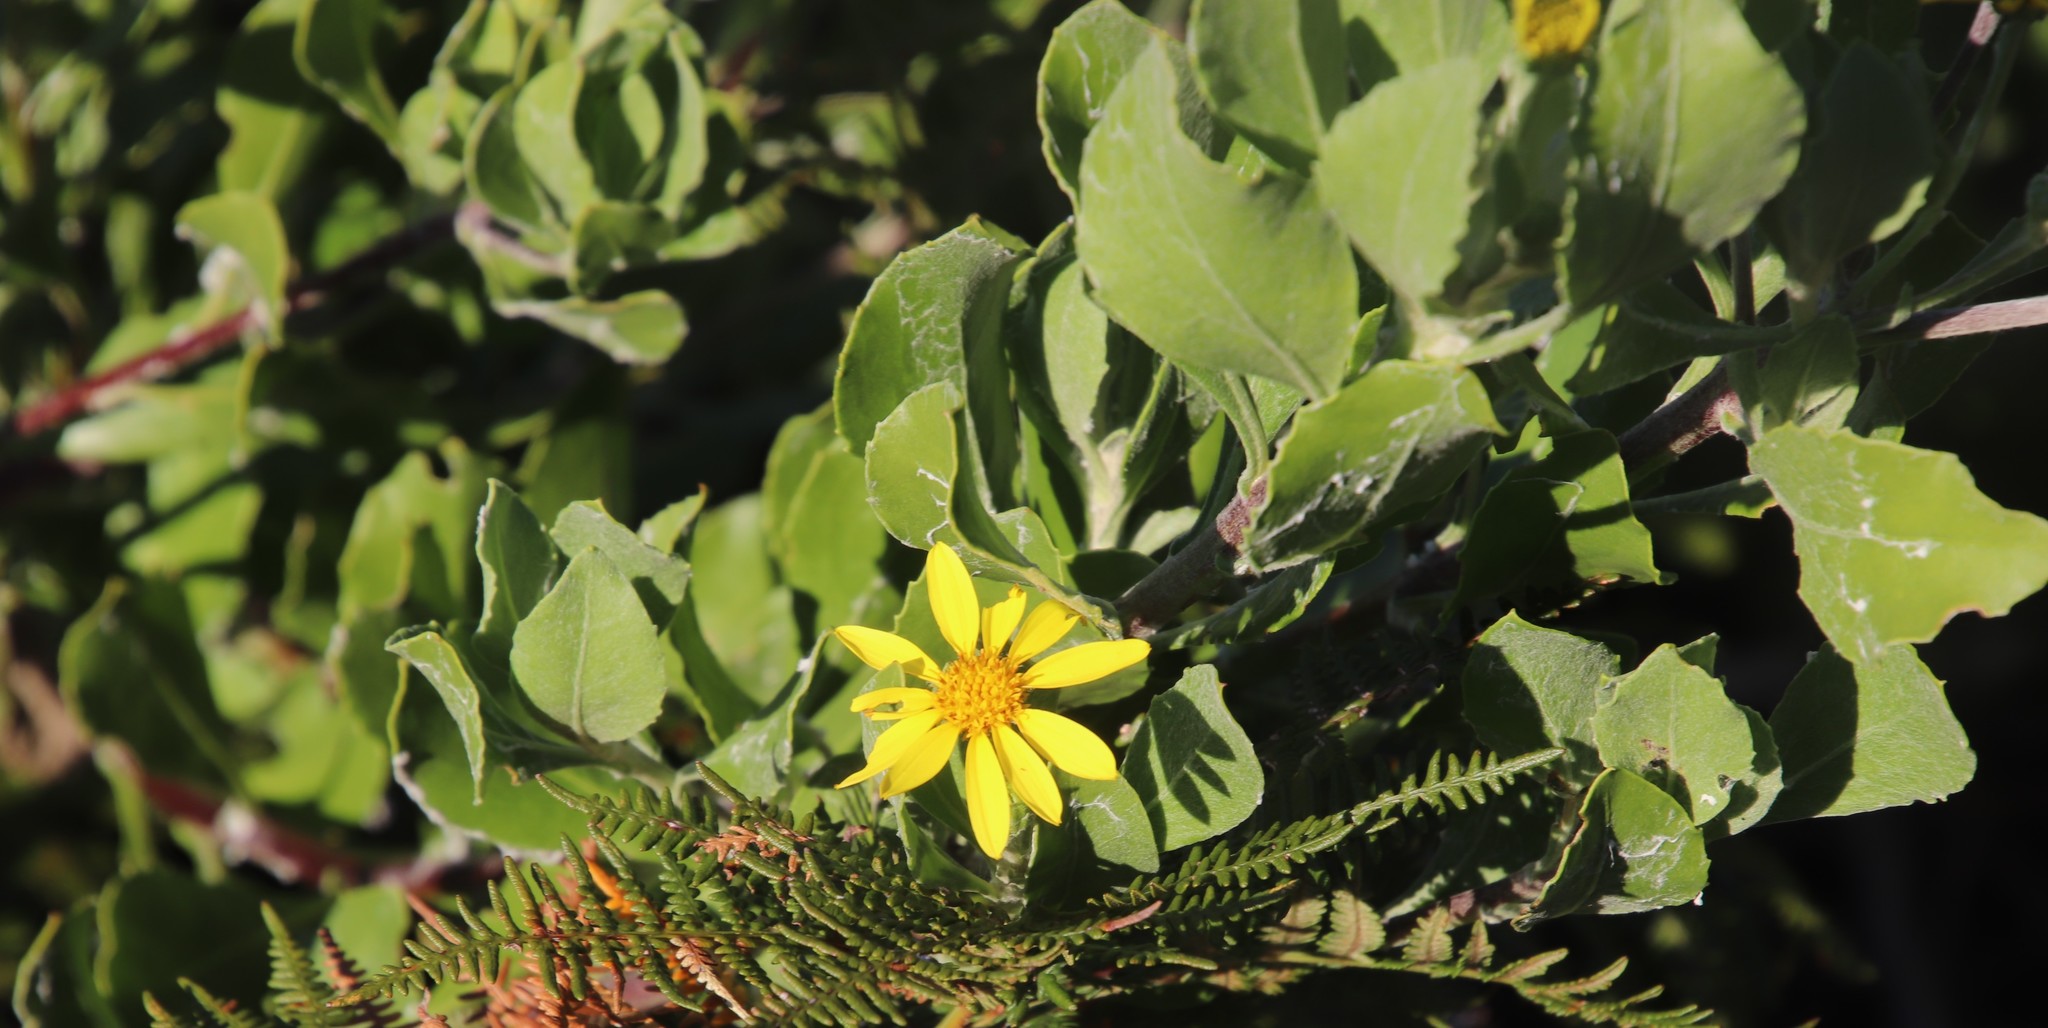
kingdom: Plantae
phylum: Tracheophyta
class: Magnoliopsida
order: Asterales
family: Asteraceae
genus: Osteospermum
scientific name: Osteospermum moniliferum
